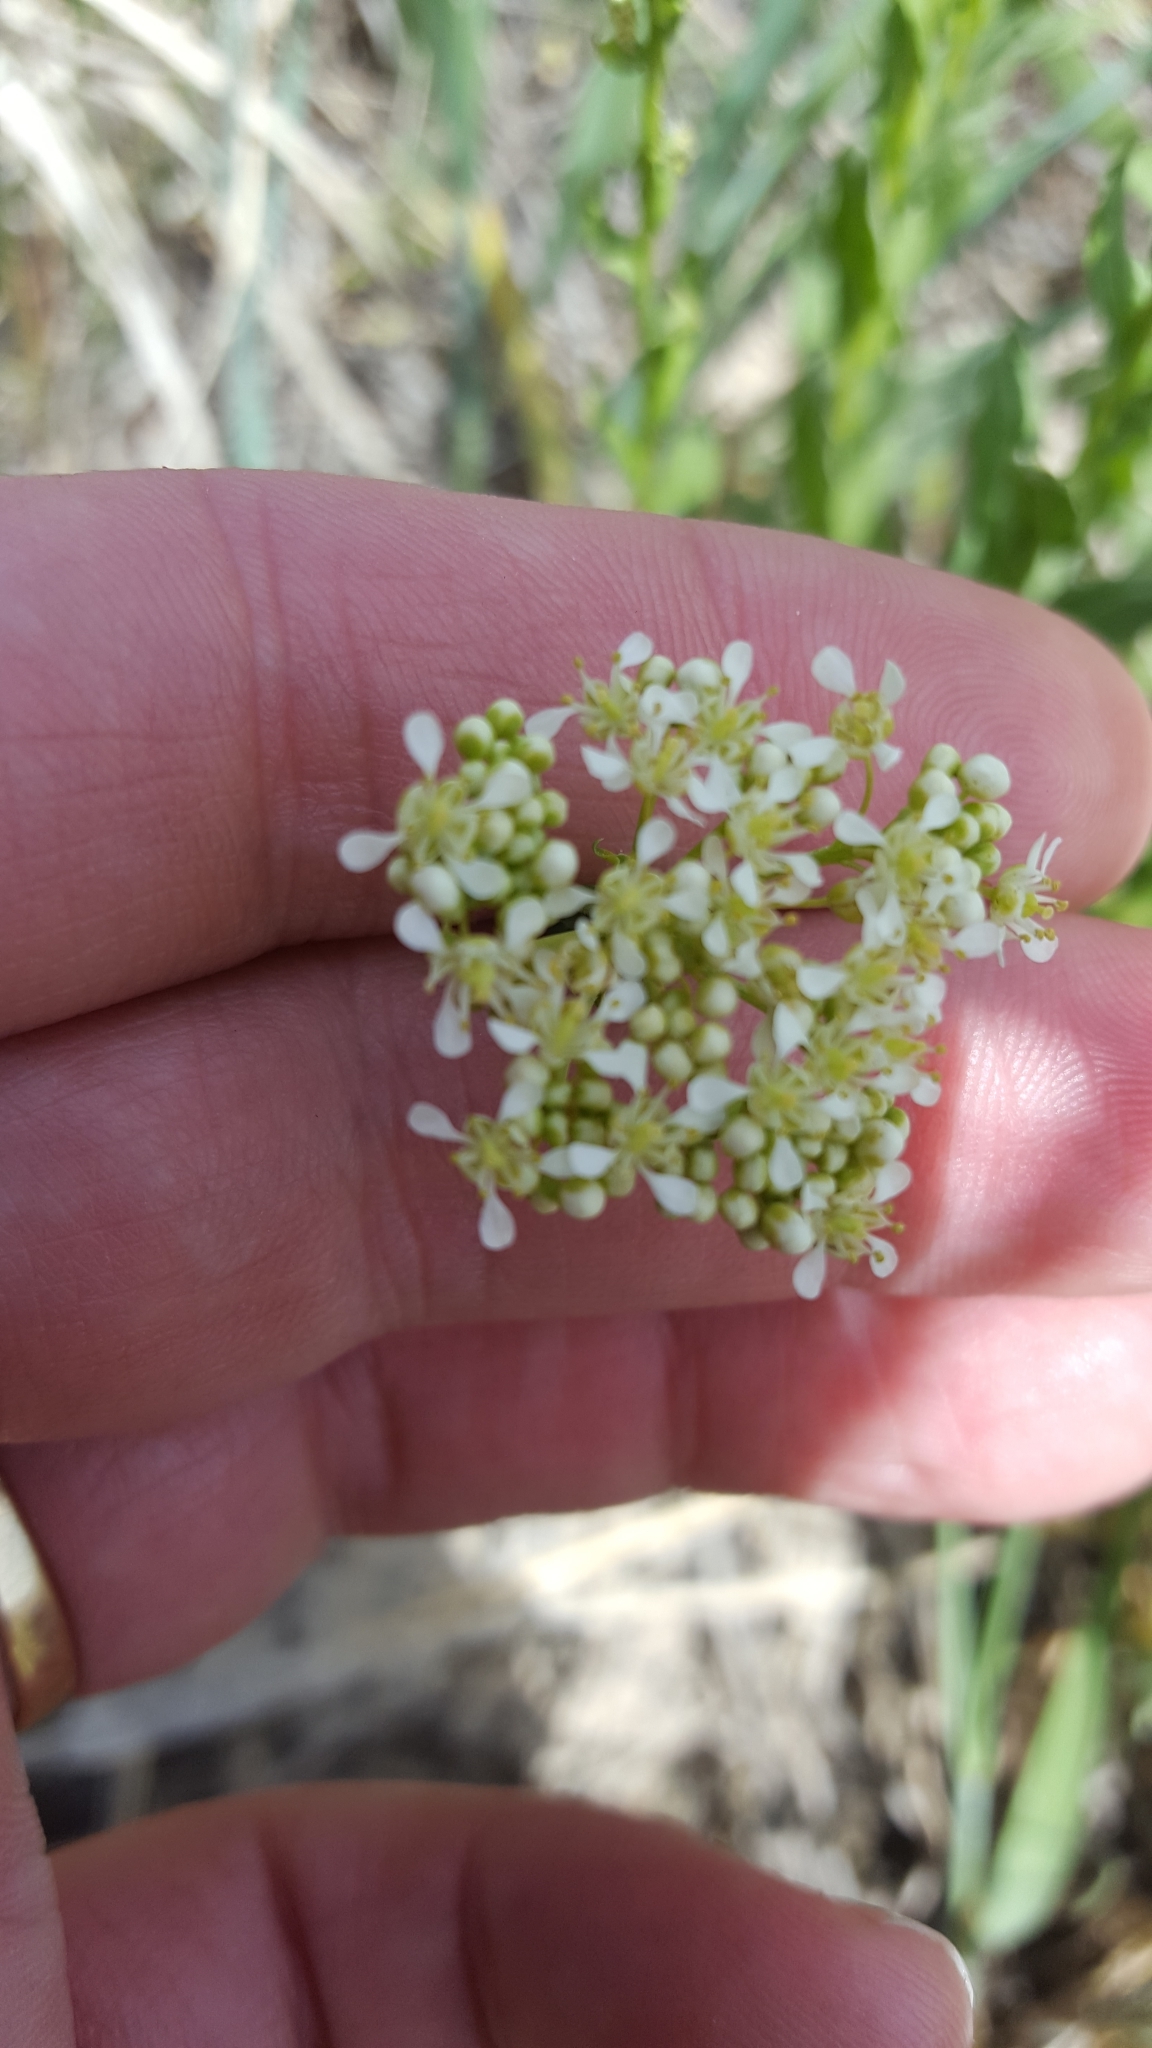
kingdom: Plantae
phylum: Tracheophyta
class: Magnoliopsida
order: Brassicales
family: Brassicaceae
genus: Lepidium
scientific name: Lepidium draba
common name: Hoary cress
